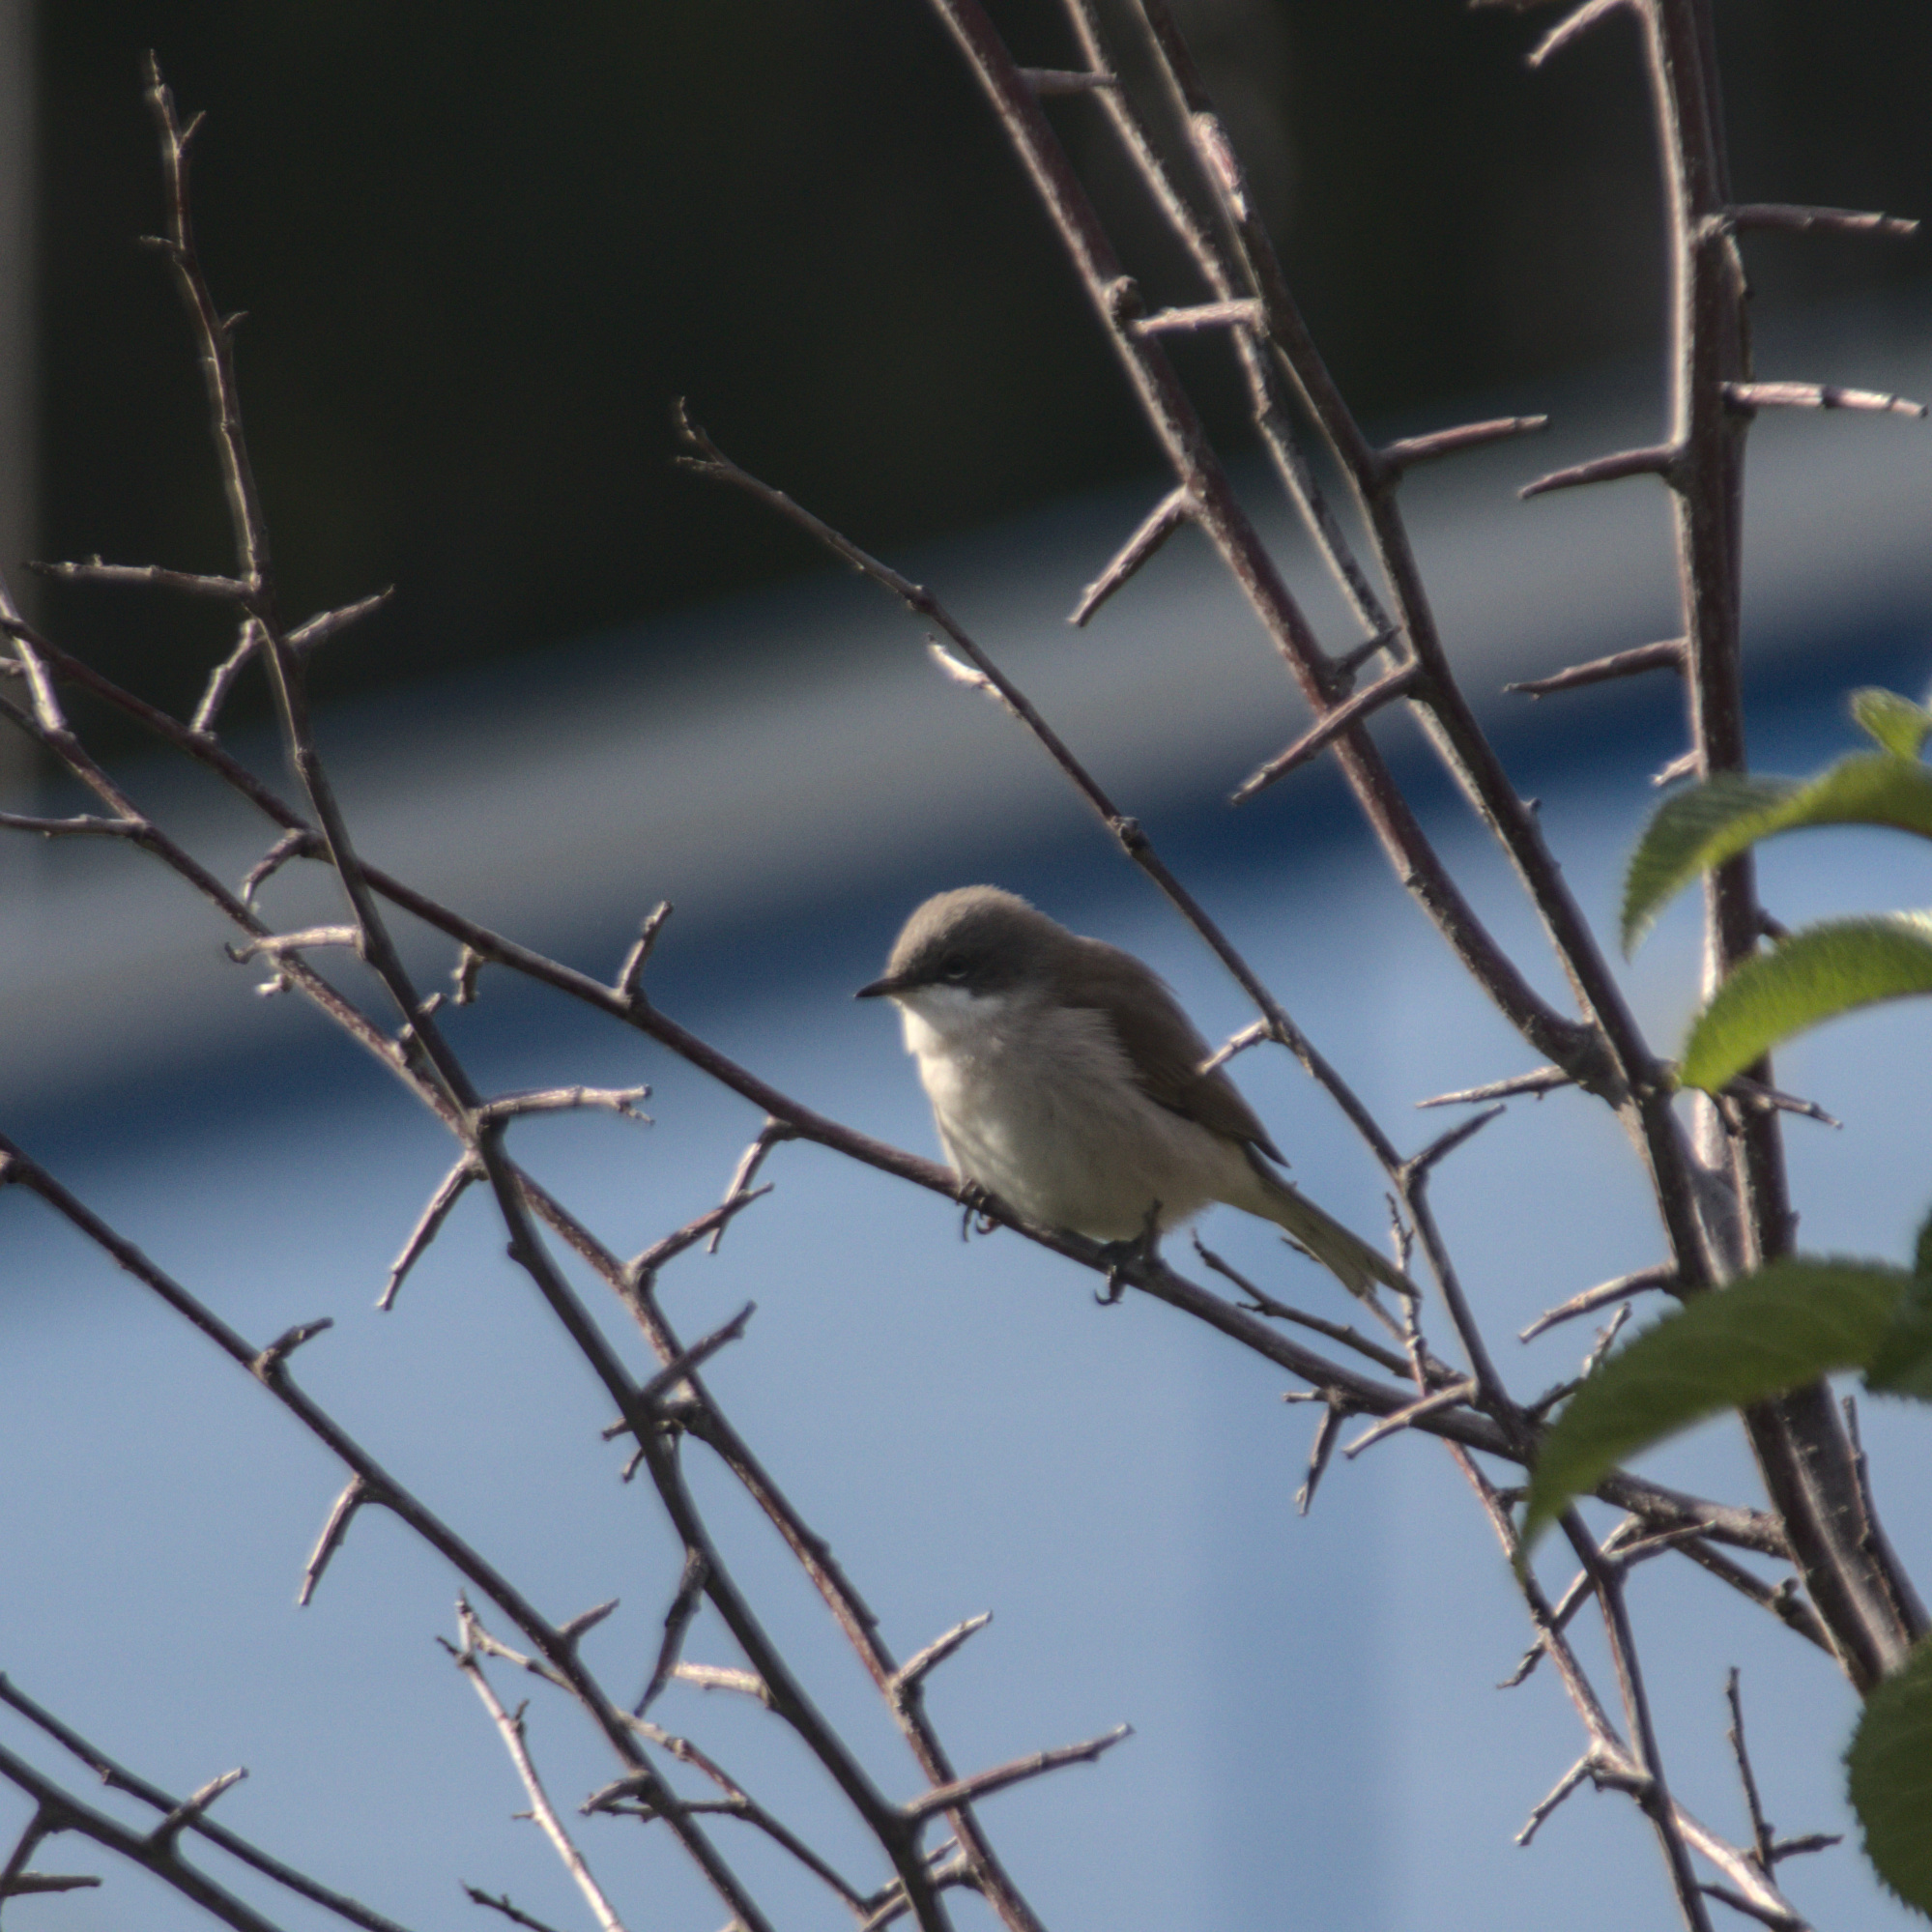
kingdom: Animalia
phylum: Chordata
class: Aves
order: Passeriformes
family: Sylviidae
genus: Sylvia
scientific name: Sylvia curruca
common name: Lesser whitethroat
